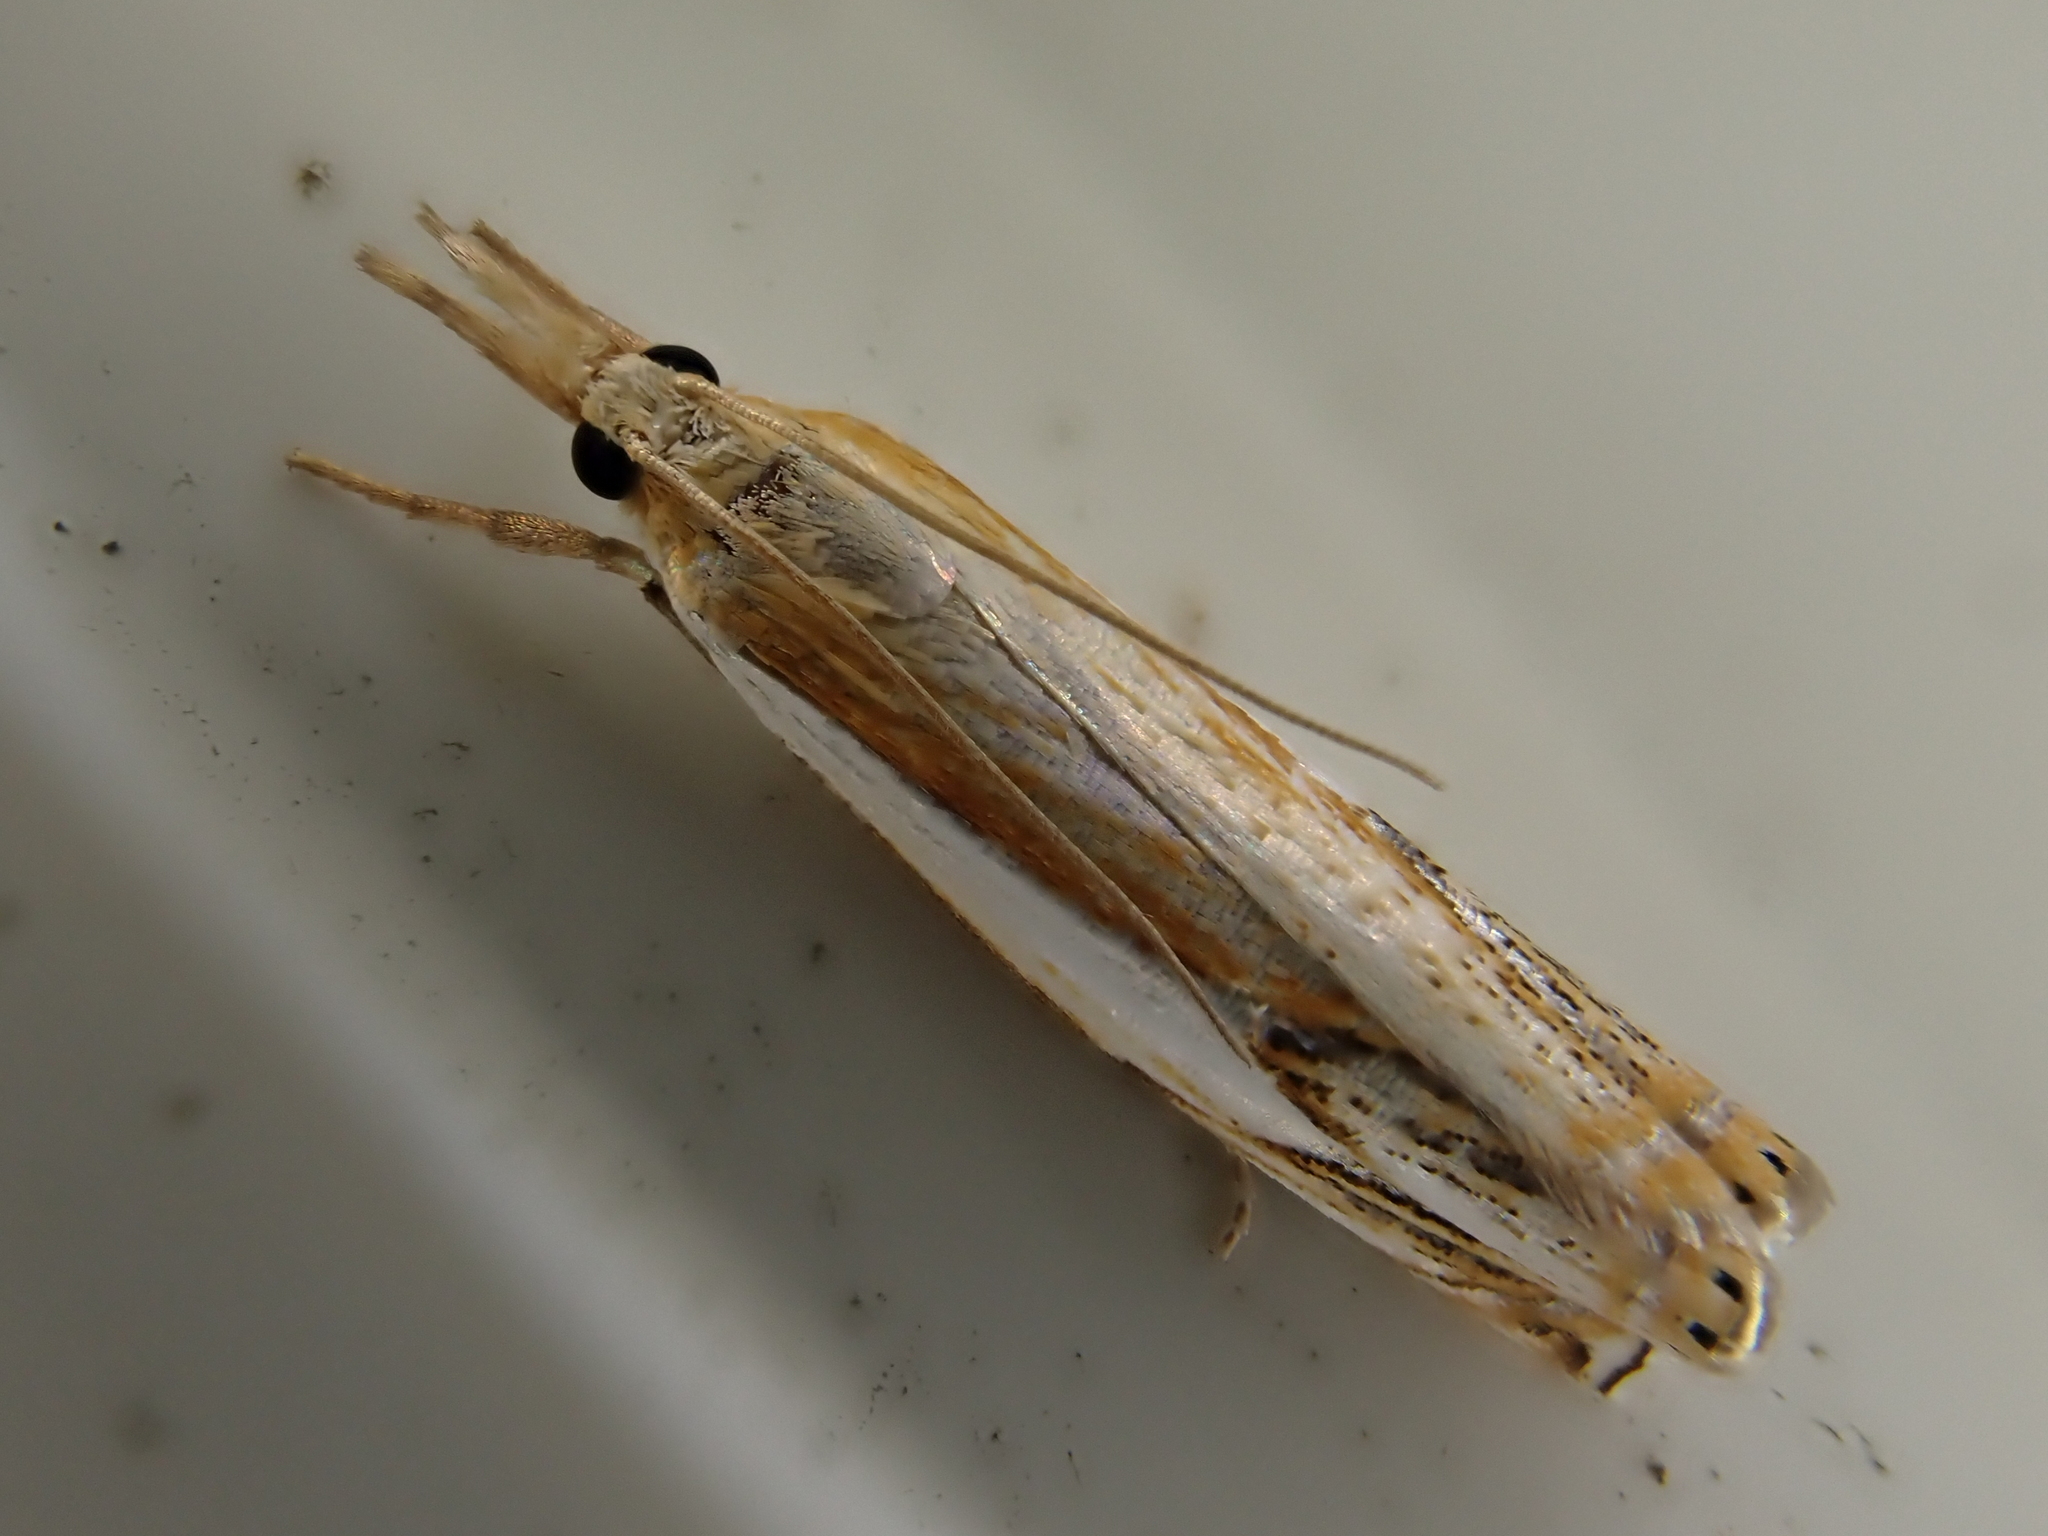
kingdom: Animalia
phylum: Arthropoda
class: Insecta
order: Lepidoptera
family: Crambidae
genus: Crambus
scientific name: Crambus agitatellus
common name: Double-banded grass-veneer
